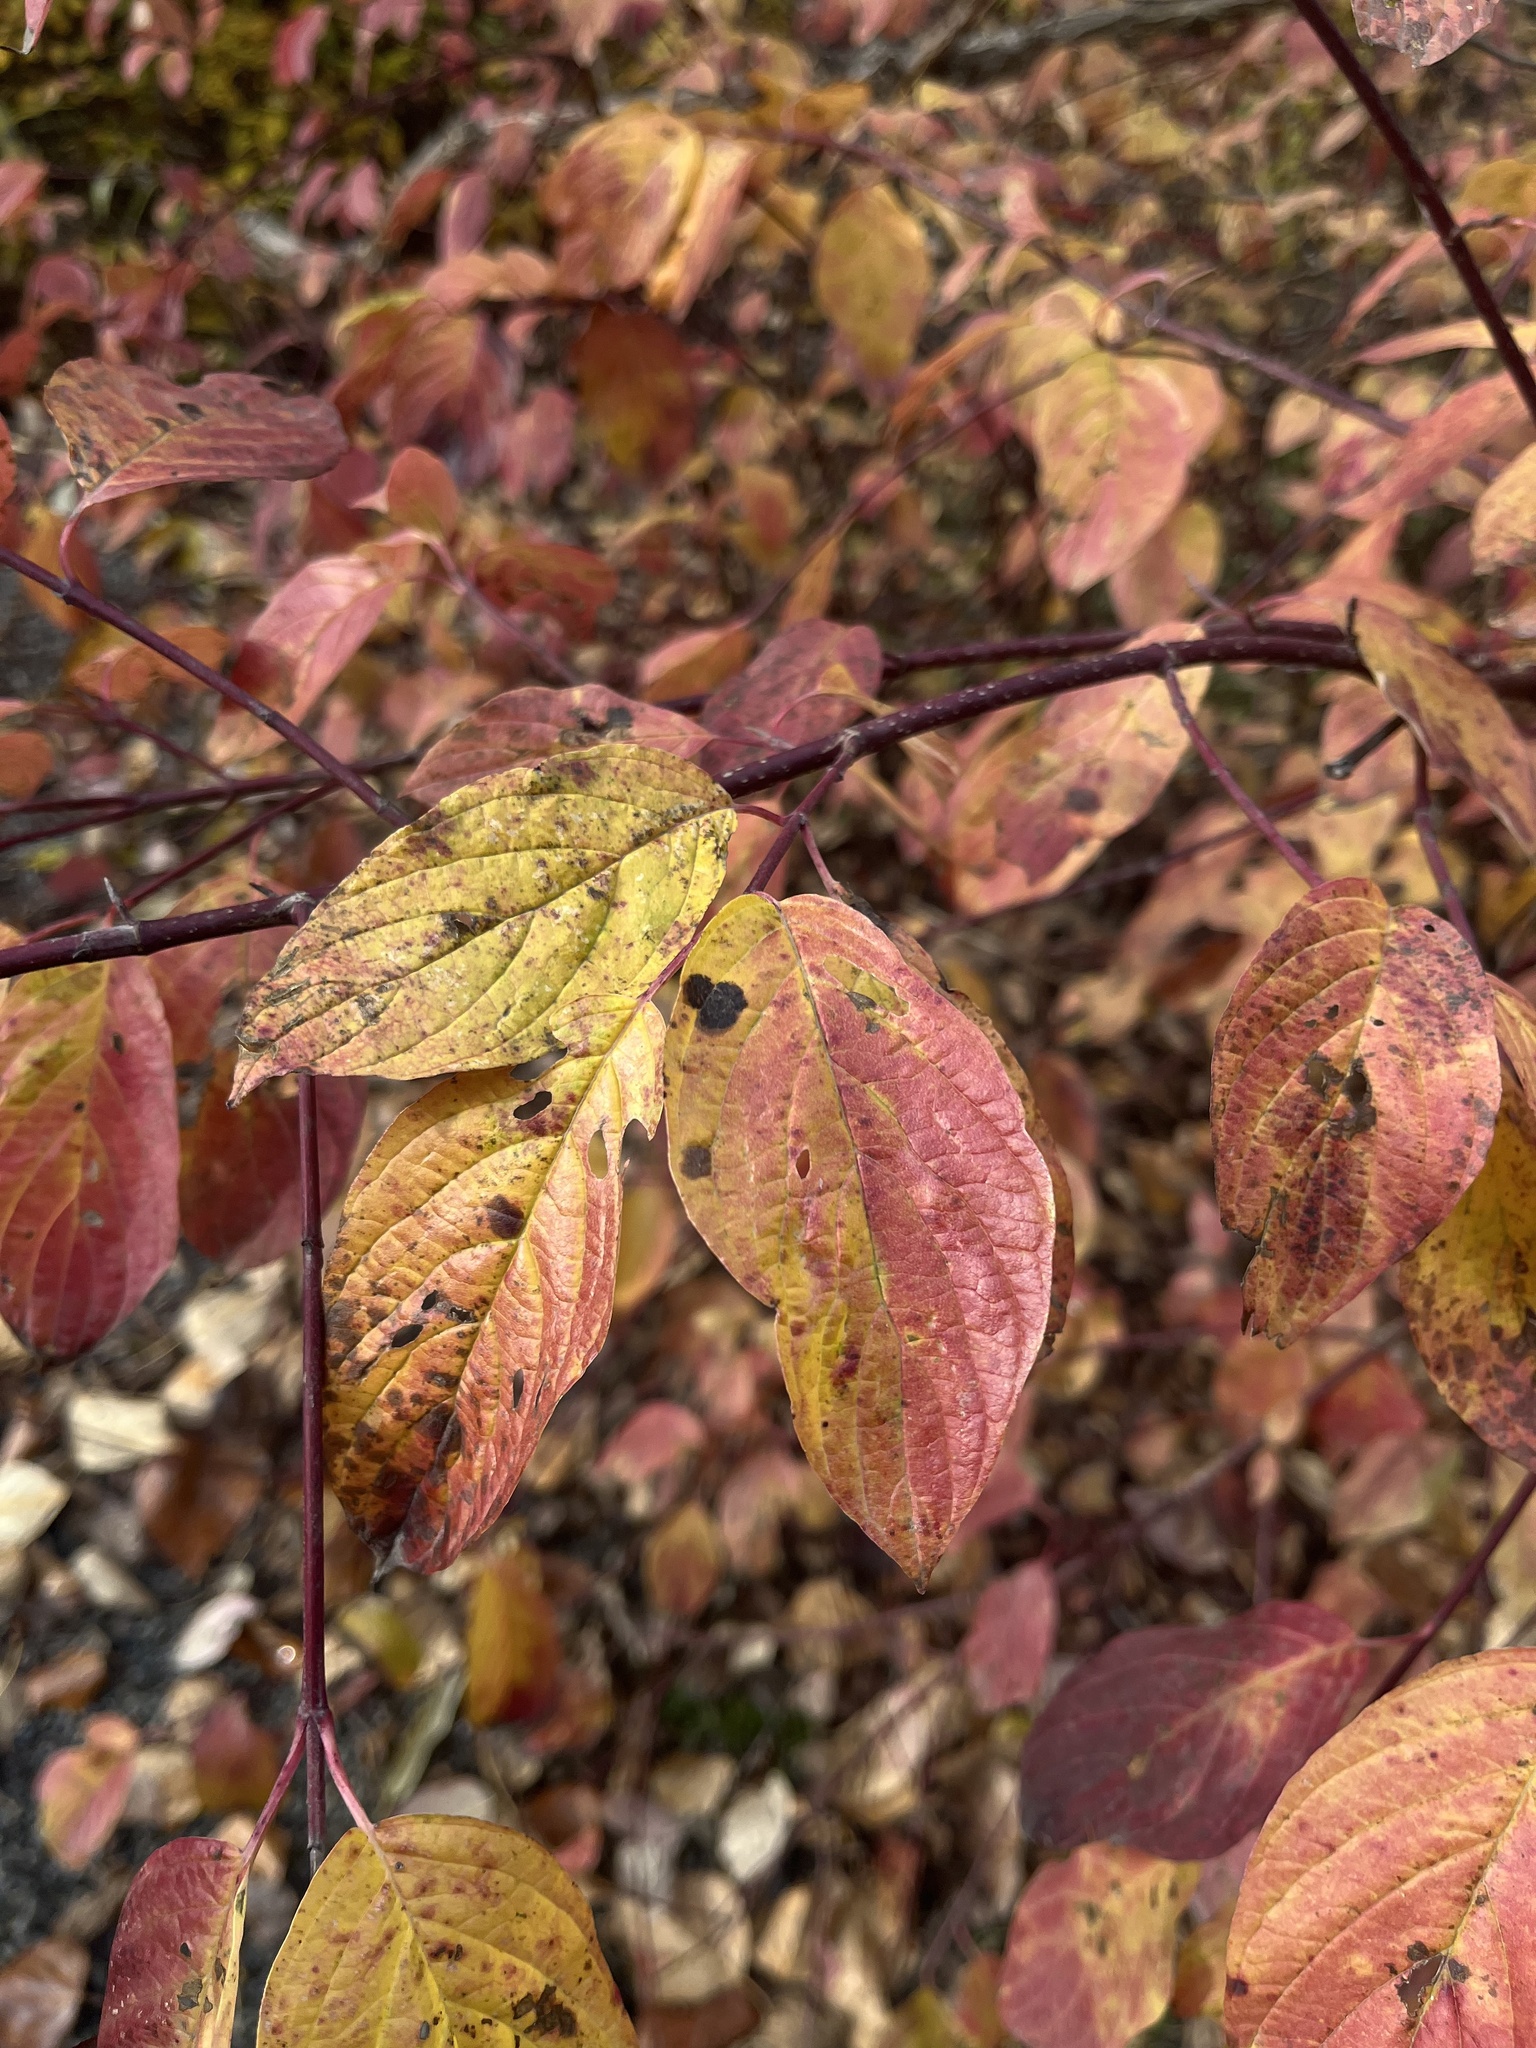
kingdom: Plantae
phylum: Tracheophyta
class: Magnoliopsida
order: Cornales
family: Cornaceae
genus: Cornus
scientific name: Cornus sericea
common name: Red-osier dogwood
